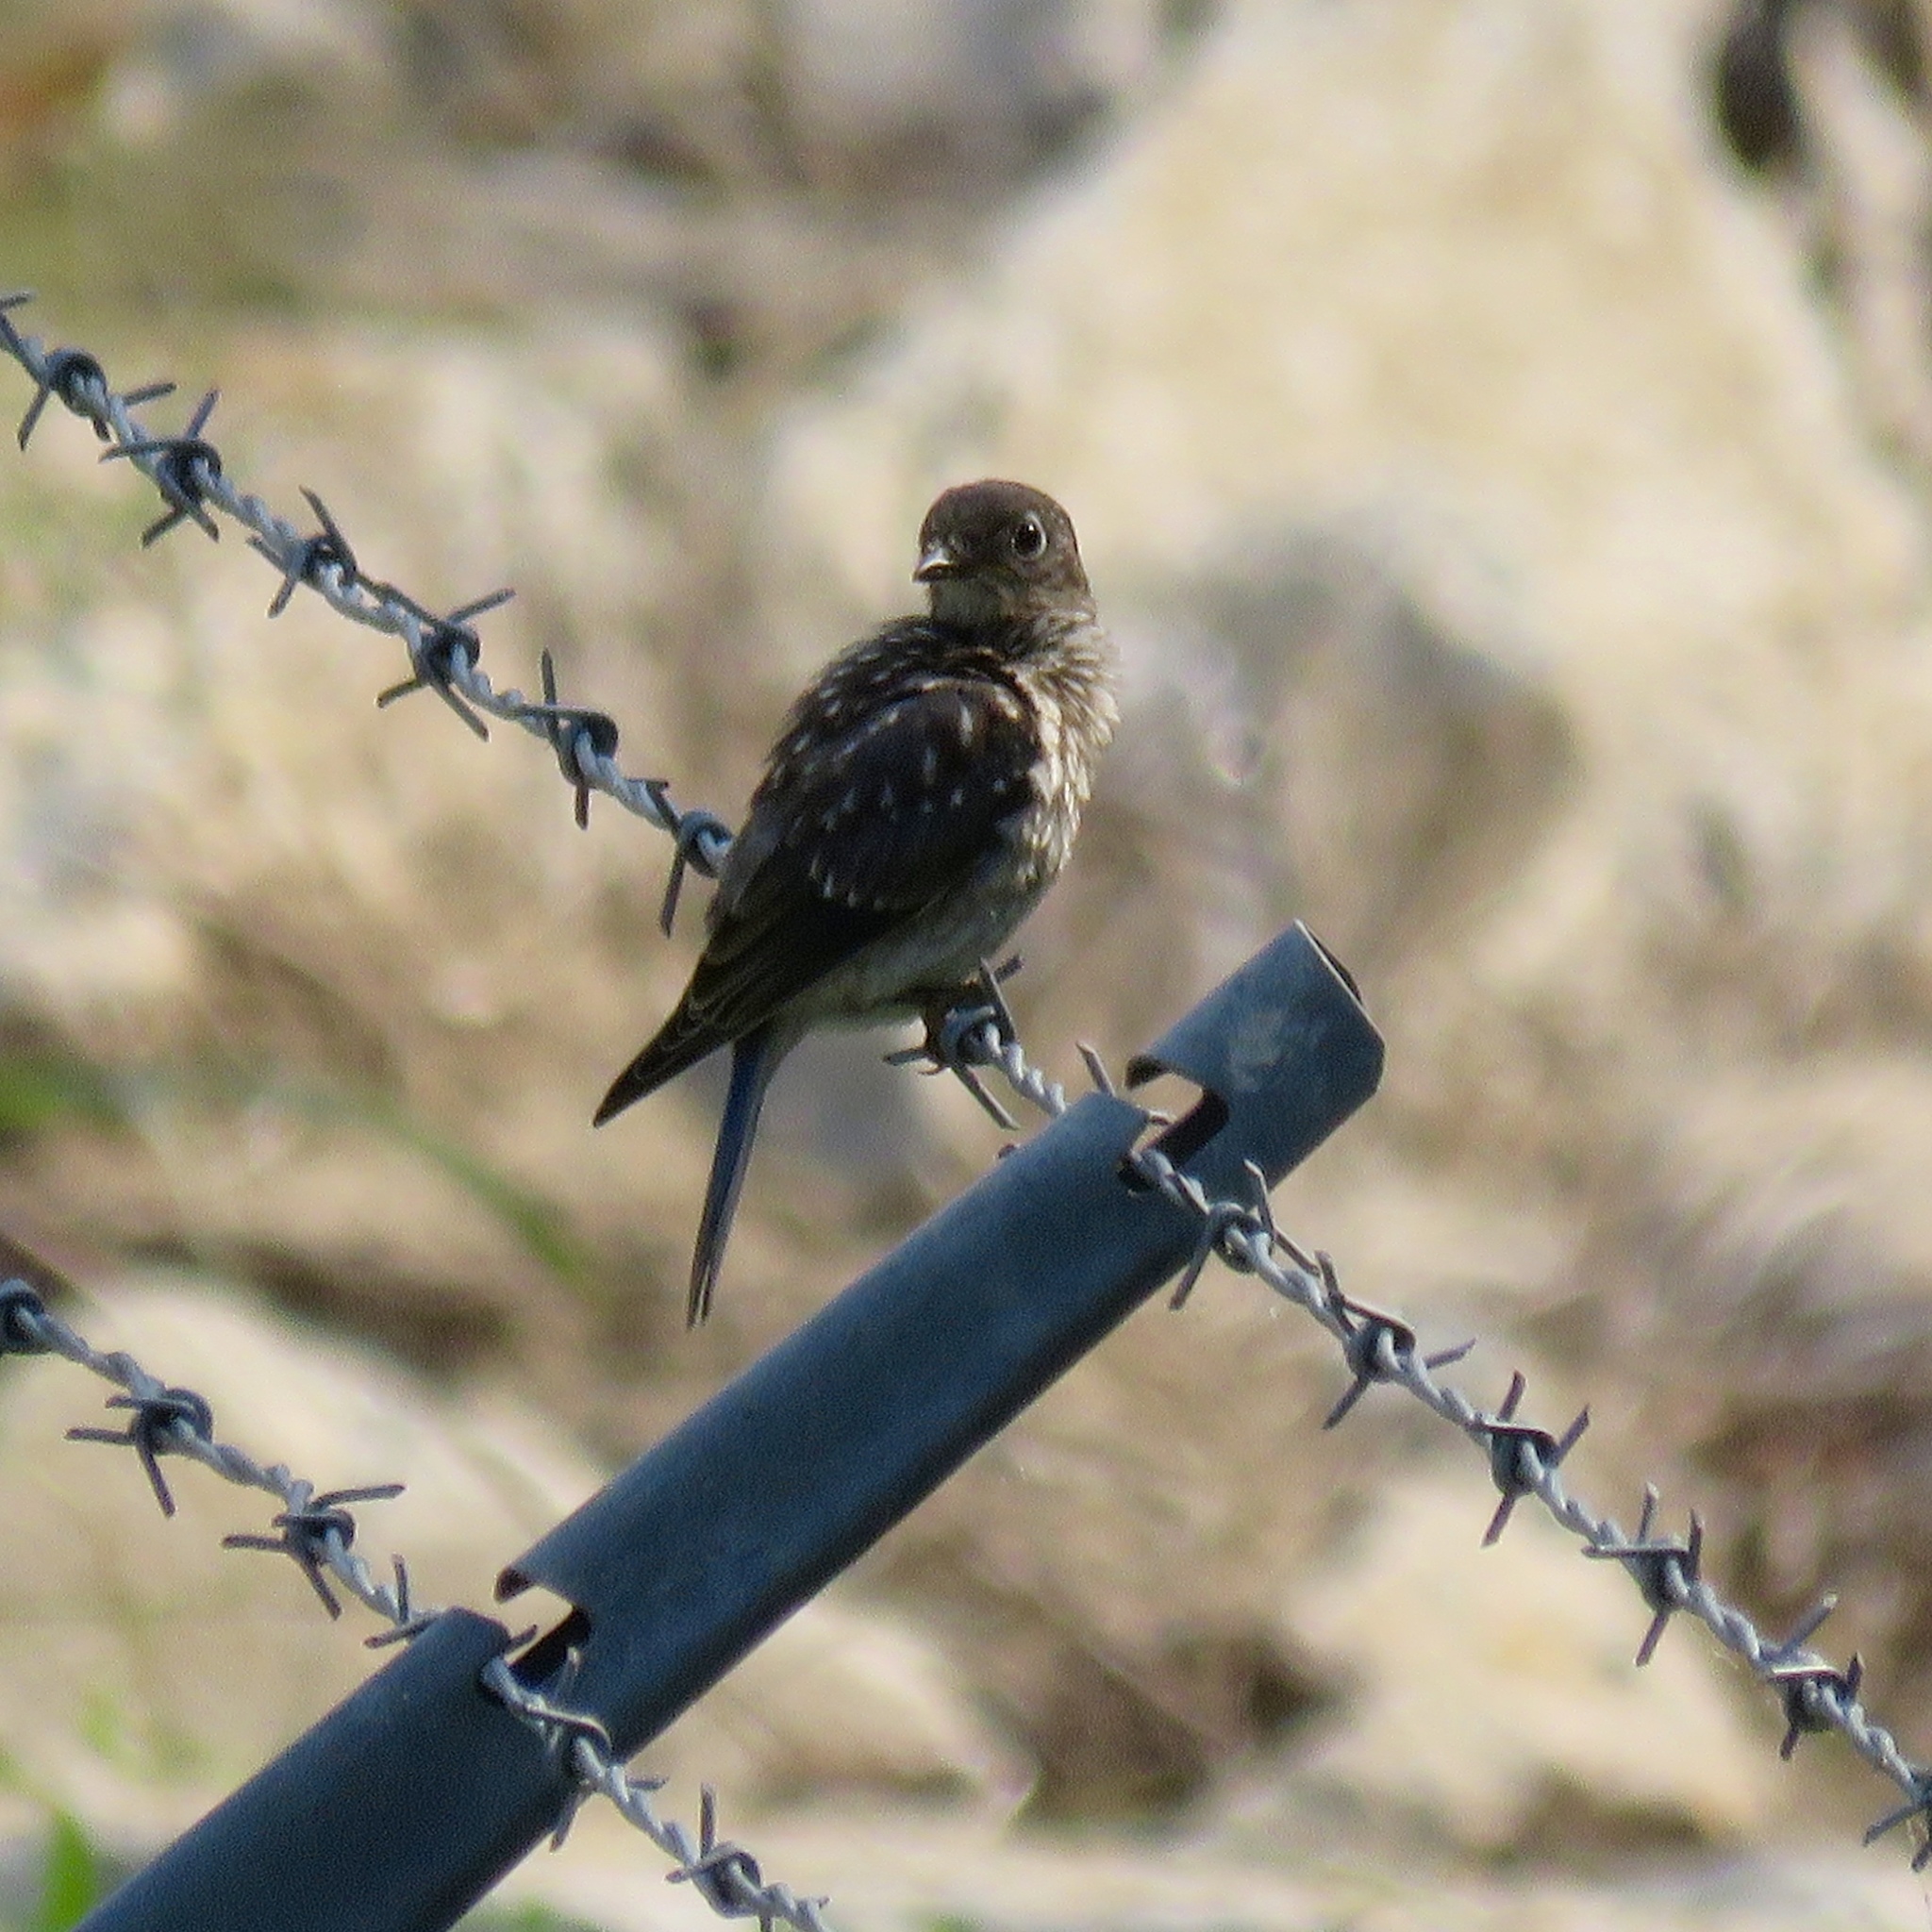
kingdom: Animalia
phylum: Chordata
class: Aves
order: Passeriformes
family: Turdidae
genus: Sialia
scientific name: Sialia sialis
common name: Eastern bluebird
